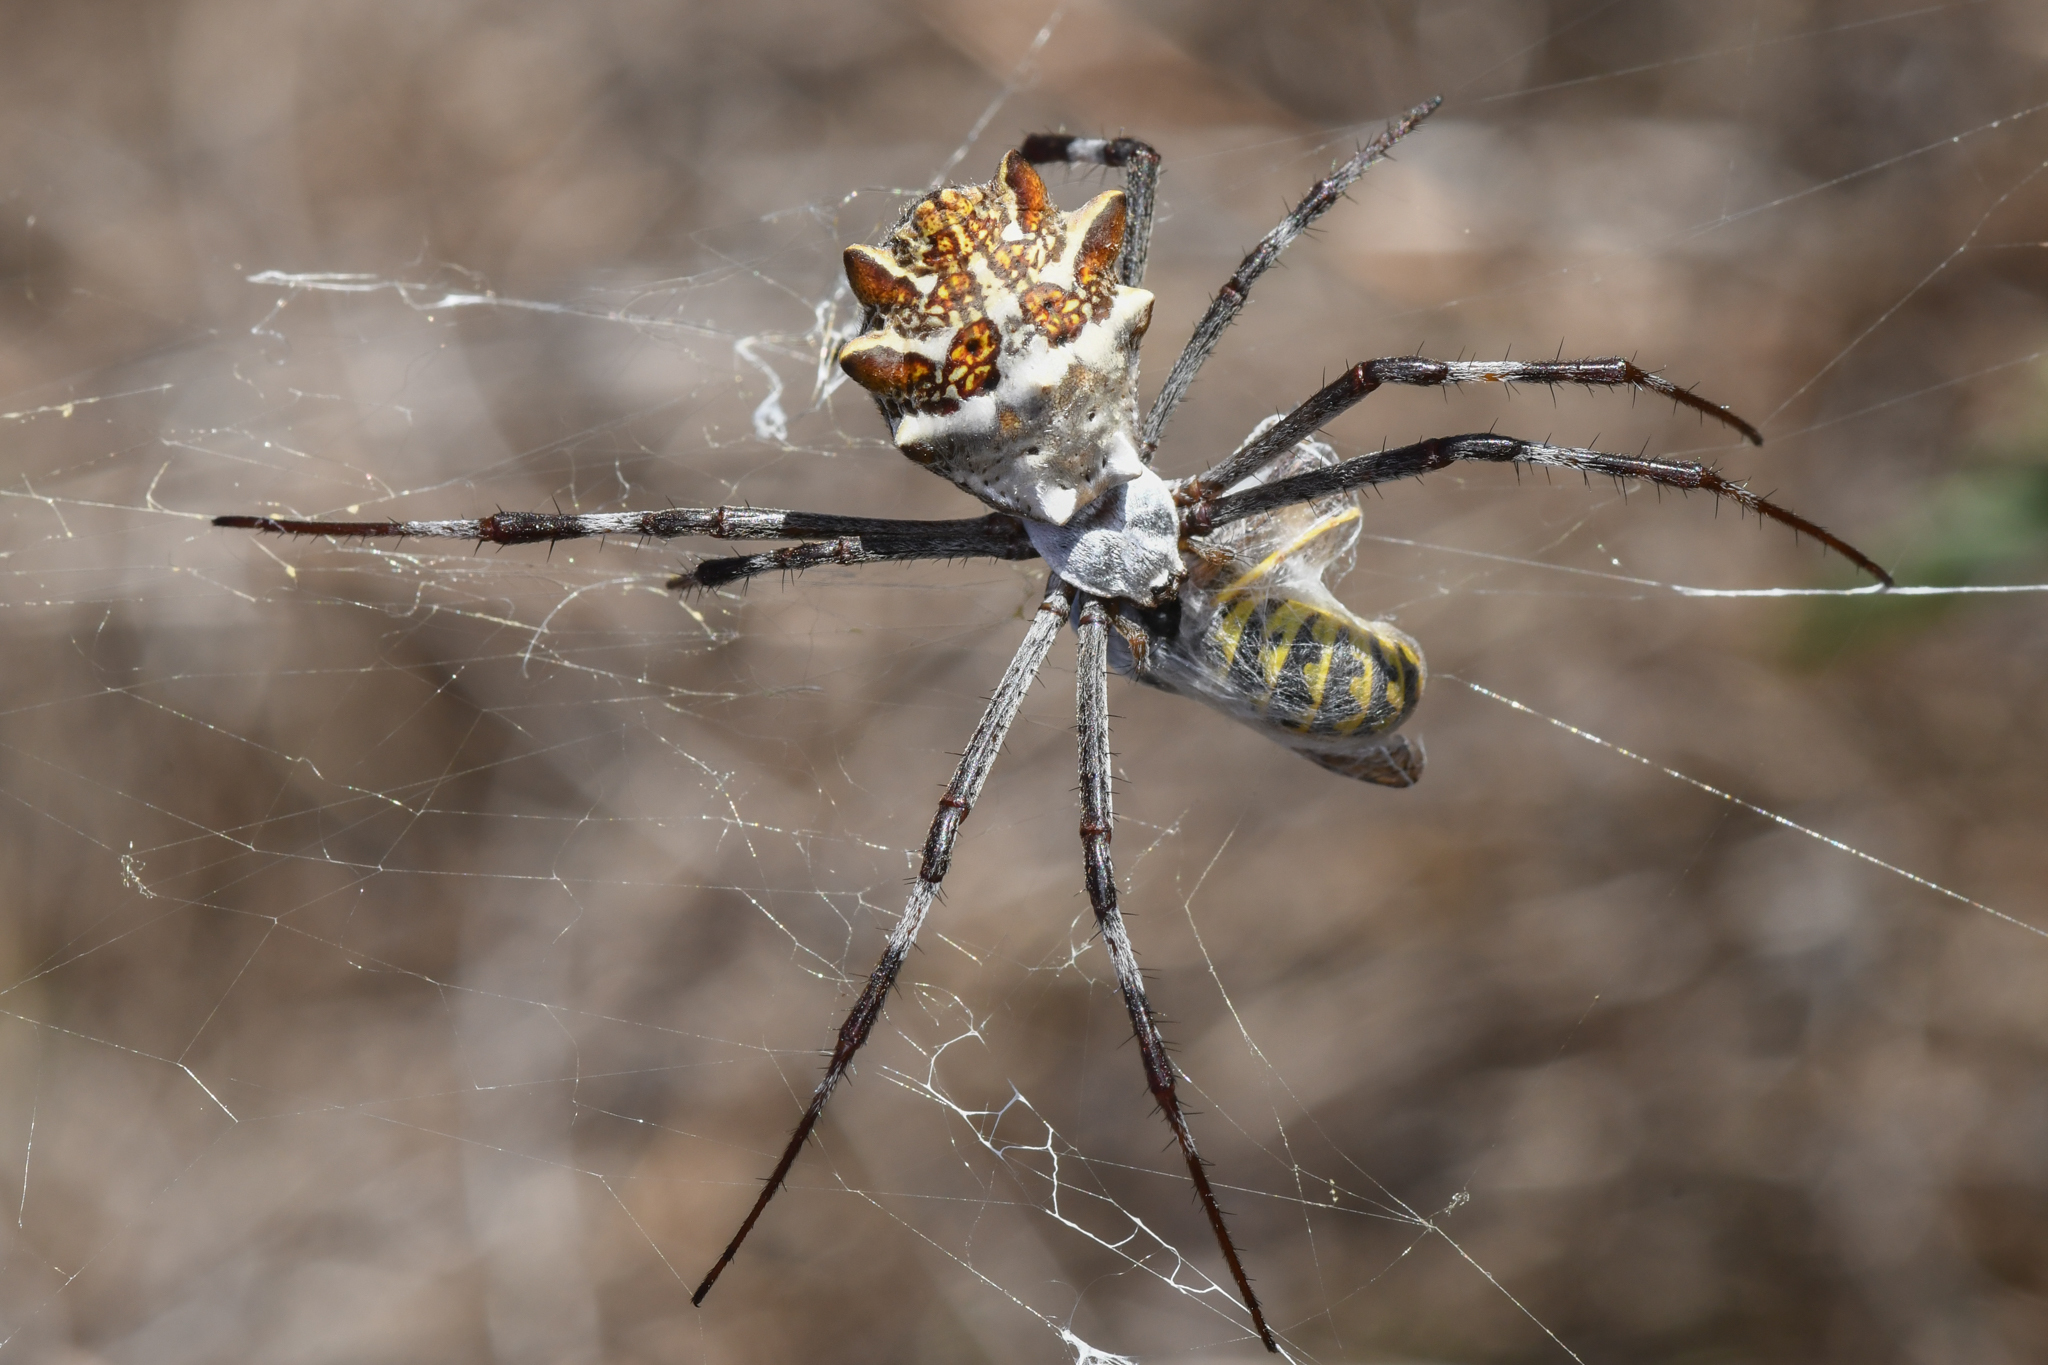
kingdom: Animalia
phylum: Arthropoda
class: Arachnida
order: Araneae
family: Araneidae
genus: Argiope
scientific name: Argiope argentata
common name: Orb weavers
